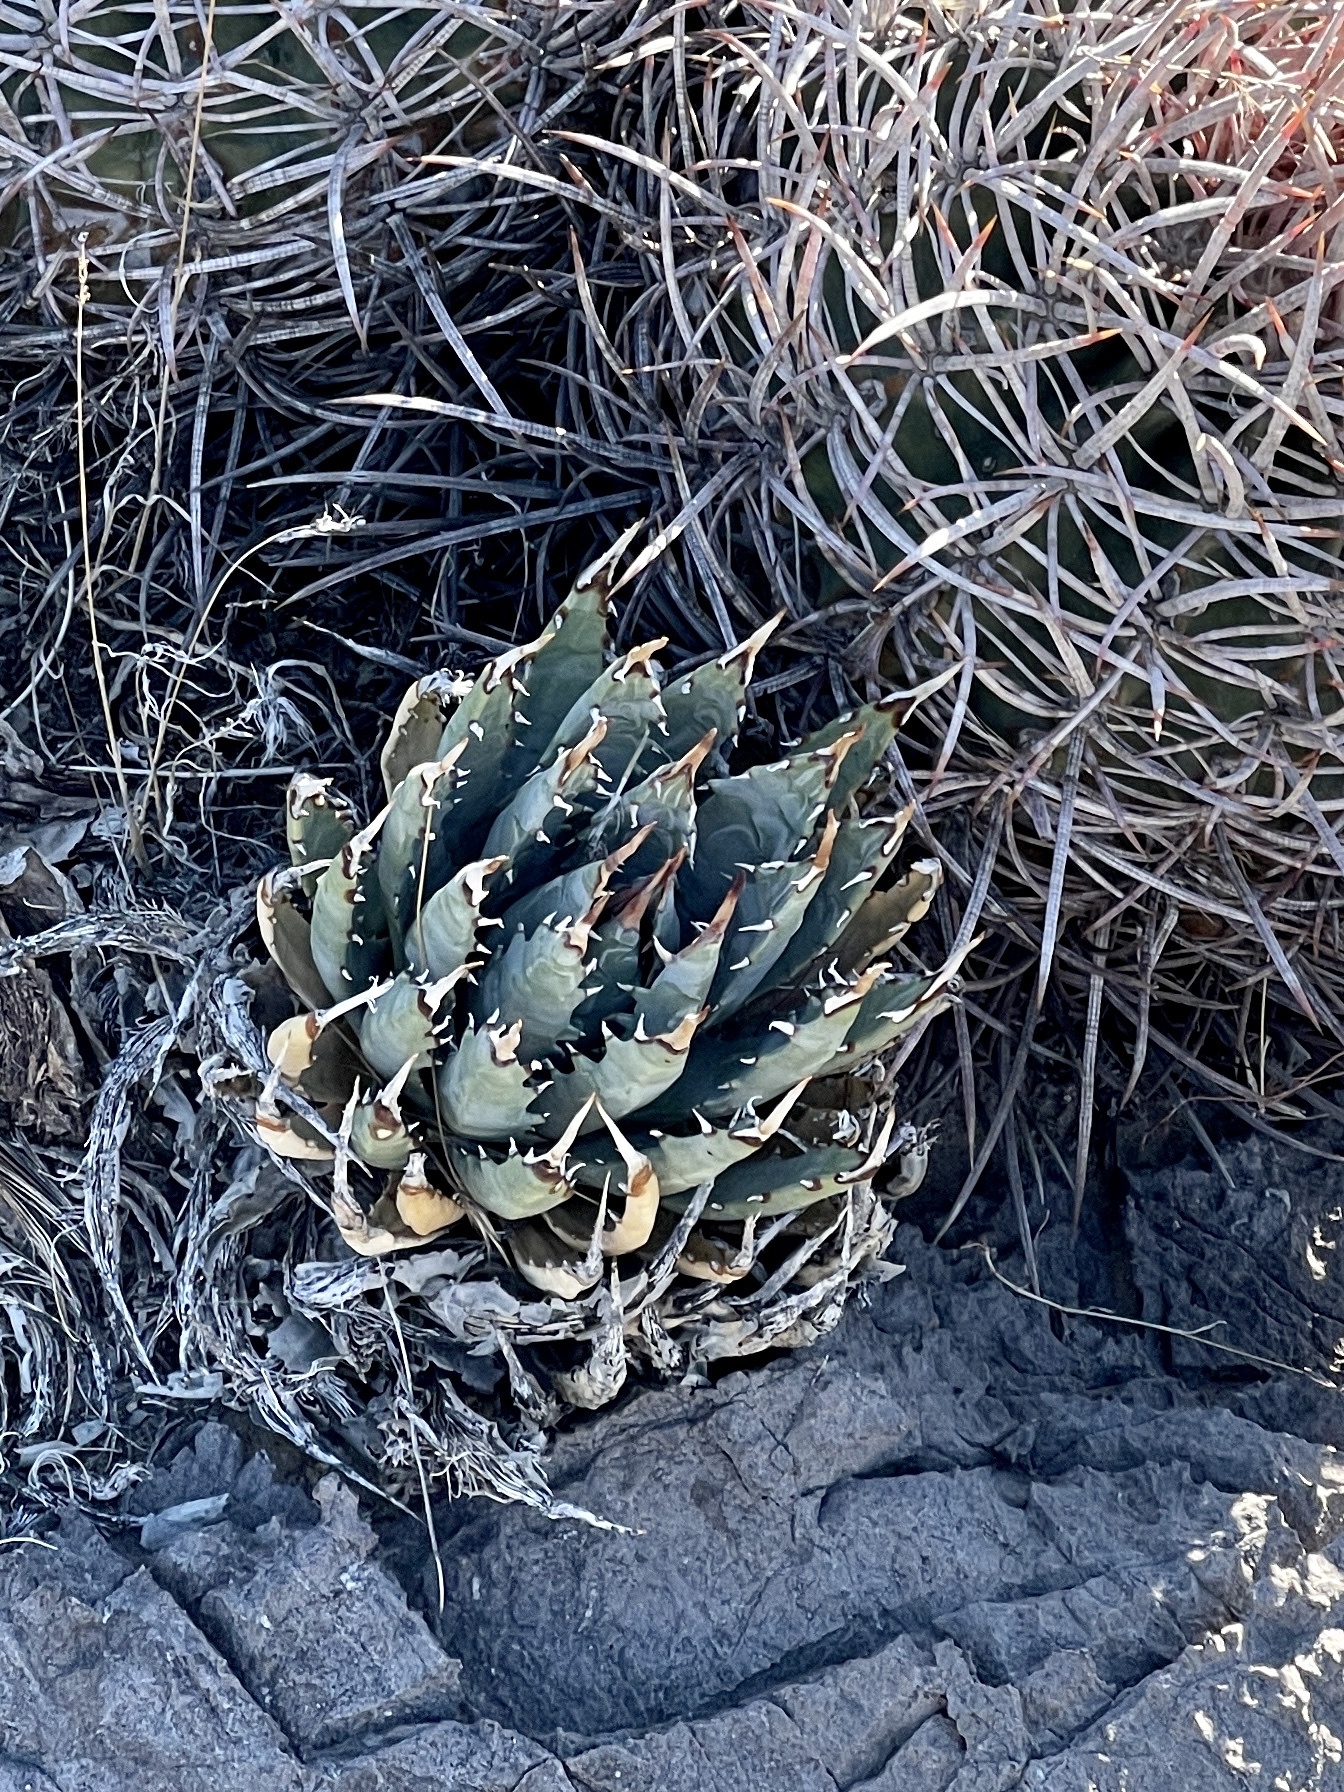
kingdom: Plantae
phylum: Tracheophyta
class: Liliopsida
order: Asparagales
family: Asparagaceae
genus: Agave
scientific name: Agave utahensis
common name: Utah agave
